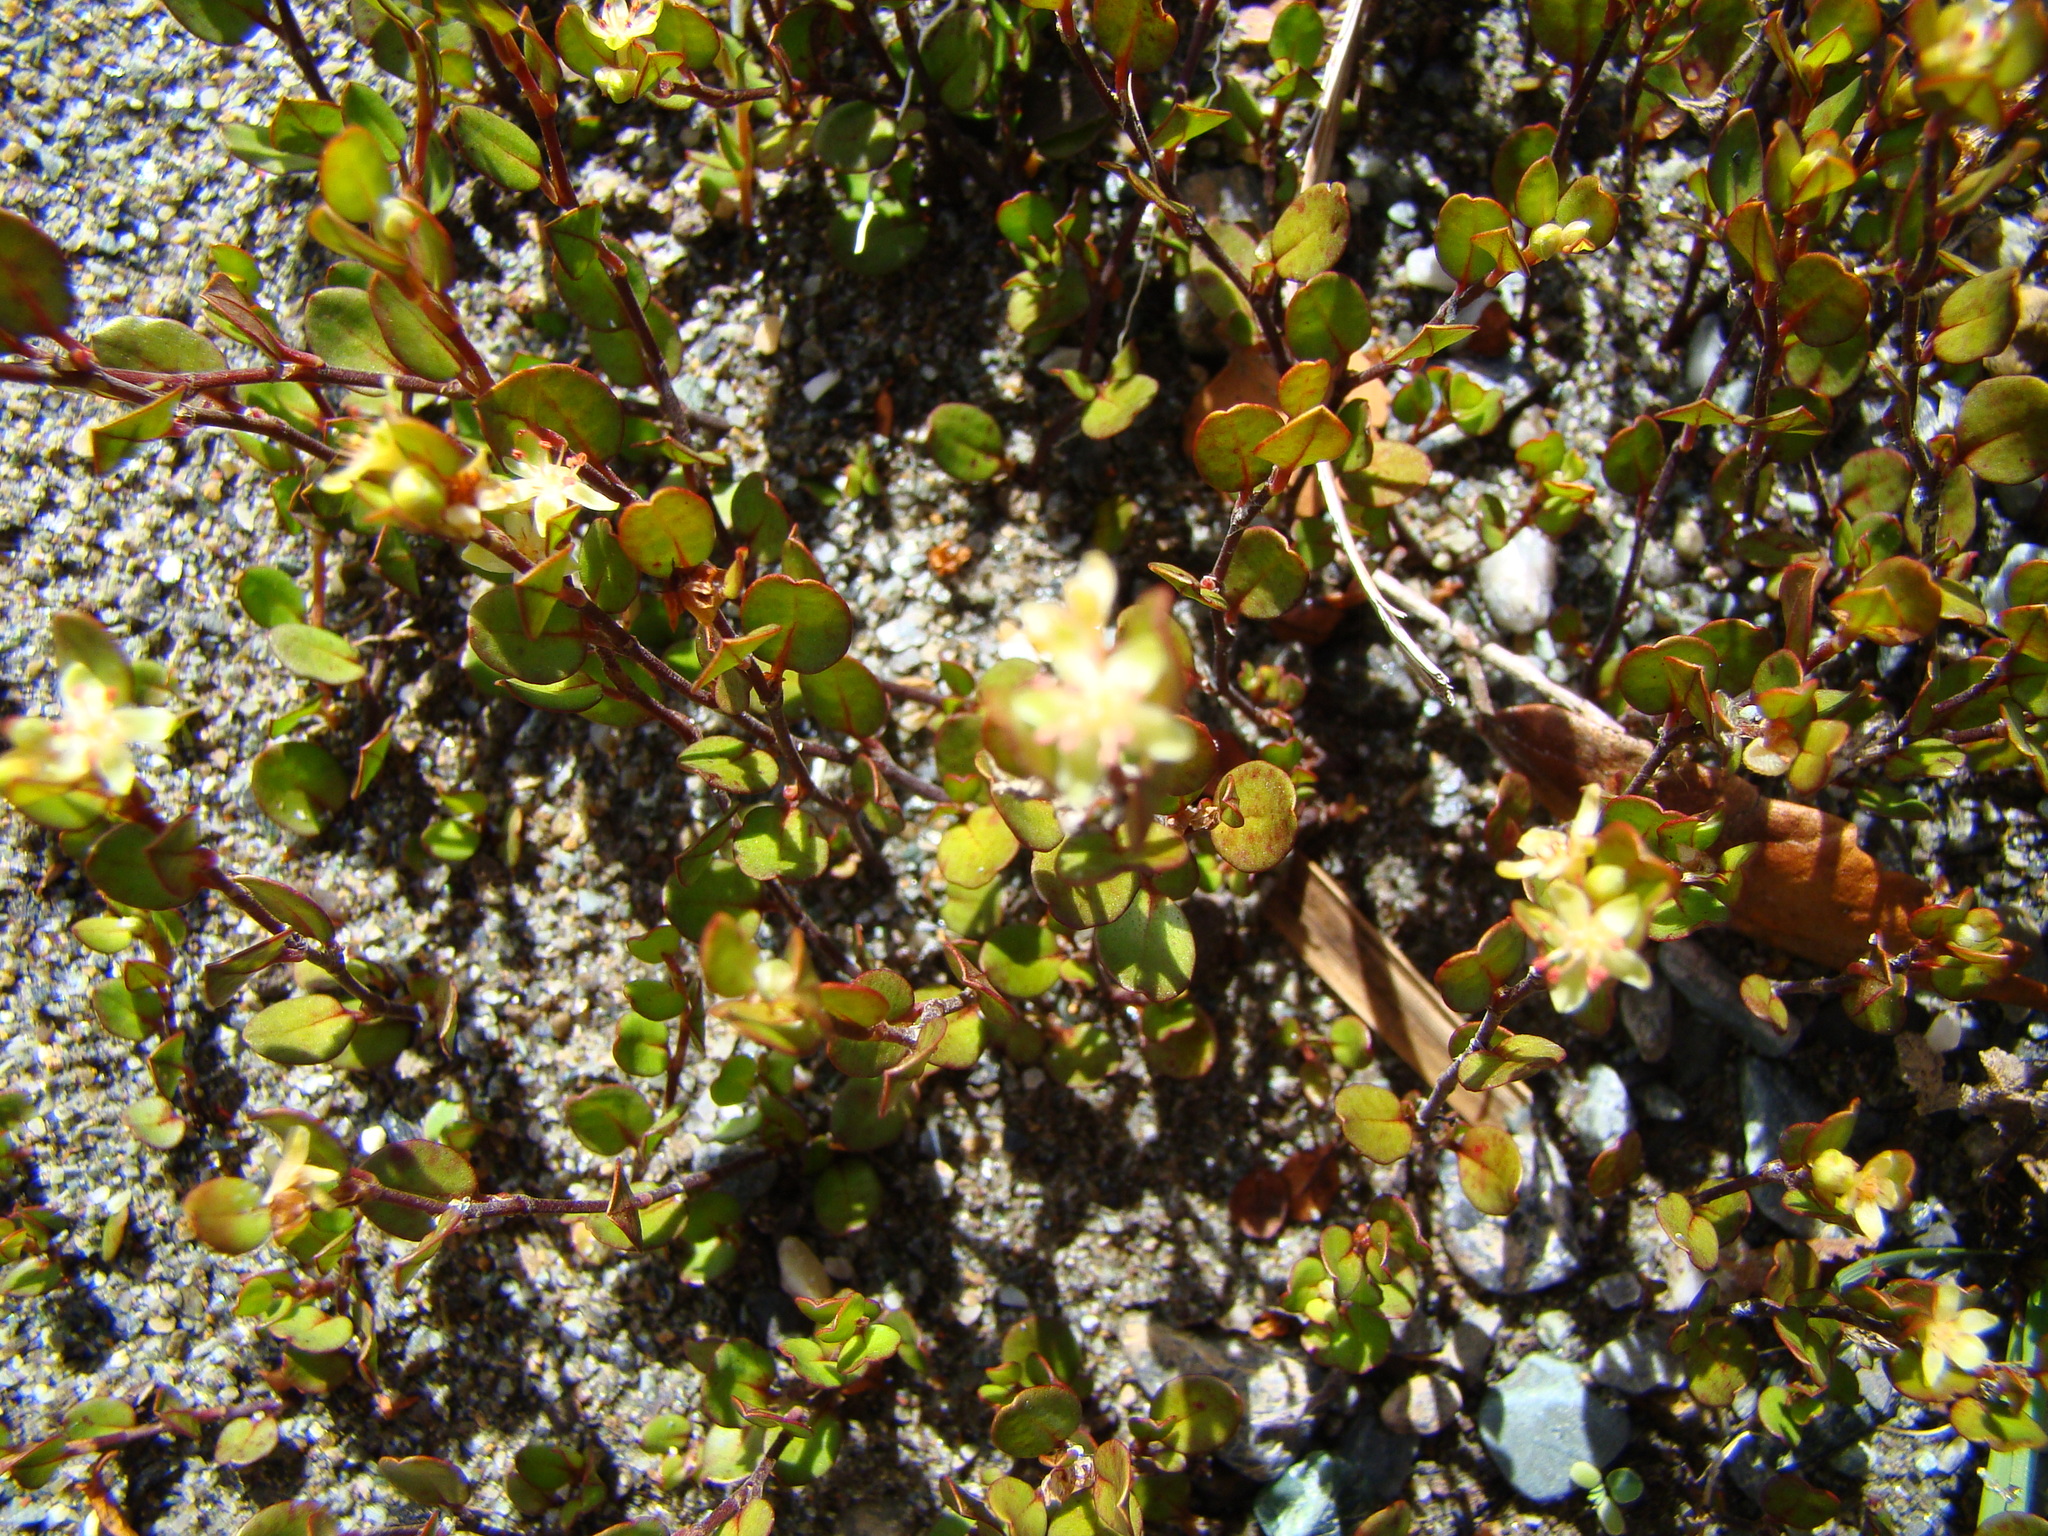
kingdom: Plantae
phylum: Tracheophyta
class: Magnoliopsida
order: Caryophyllales
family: Polygonaceae
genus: Muehlenbeckia
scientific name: Muehlenbeckia axillaris
